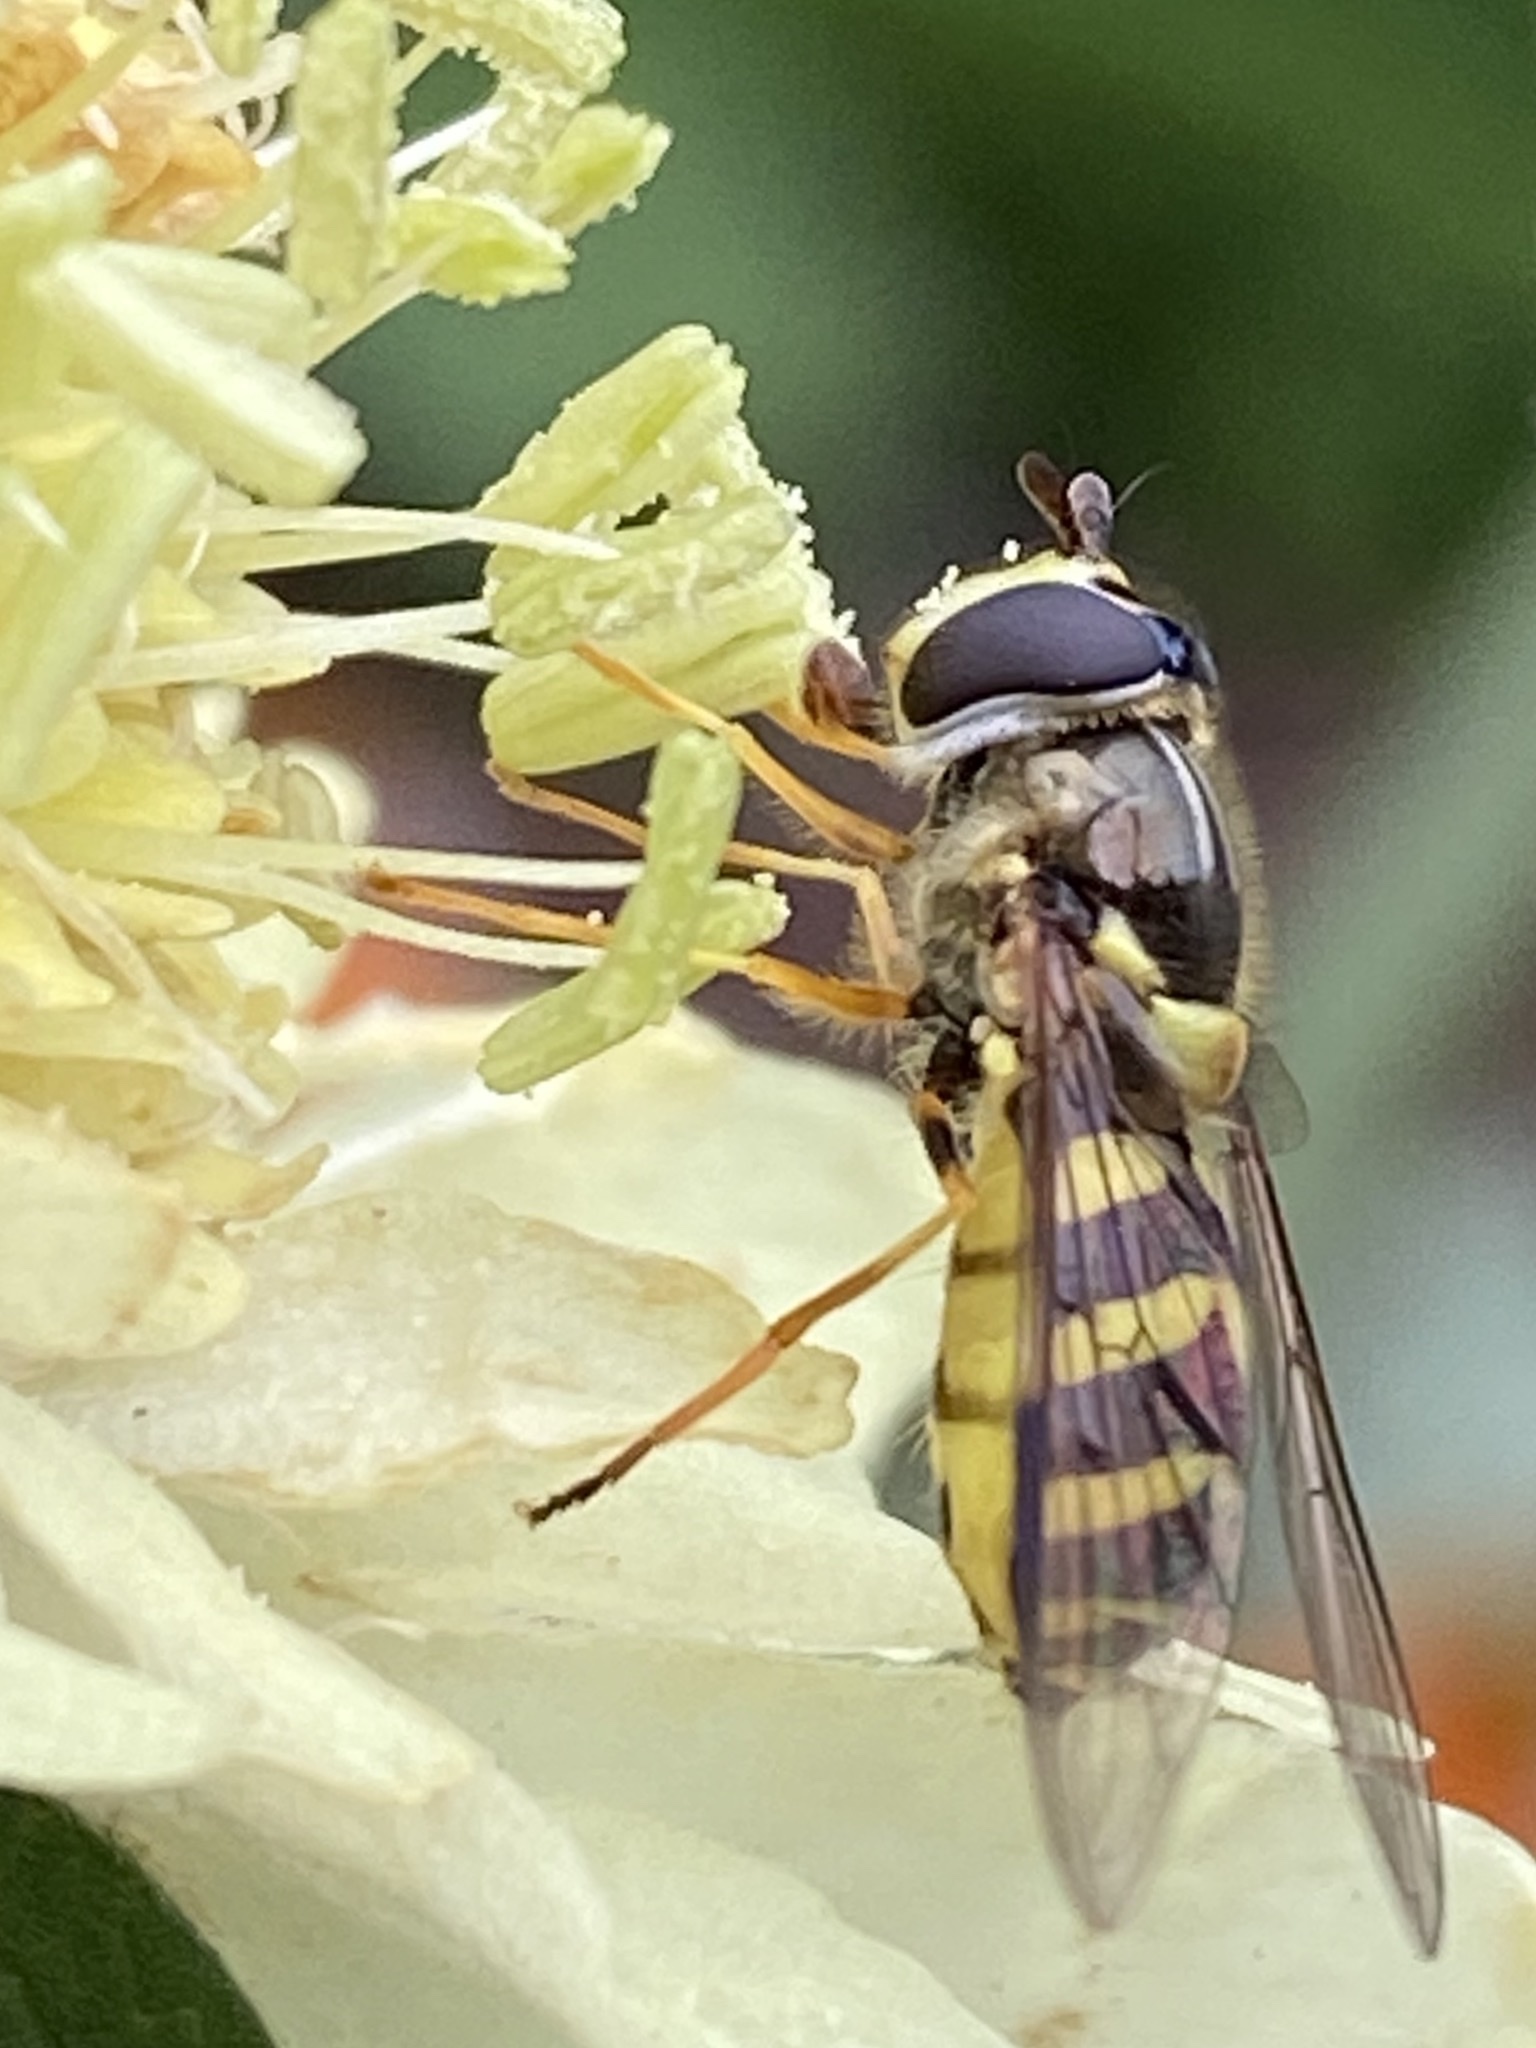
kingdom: Animalia
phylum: Arthropoda
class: Insecta
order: Diptera
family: Syrphidae
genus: Dasysyrphus
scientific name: Dasysyrphus albostriatus
